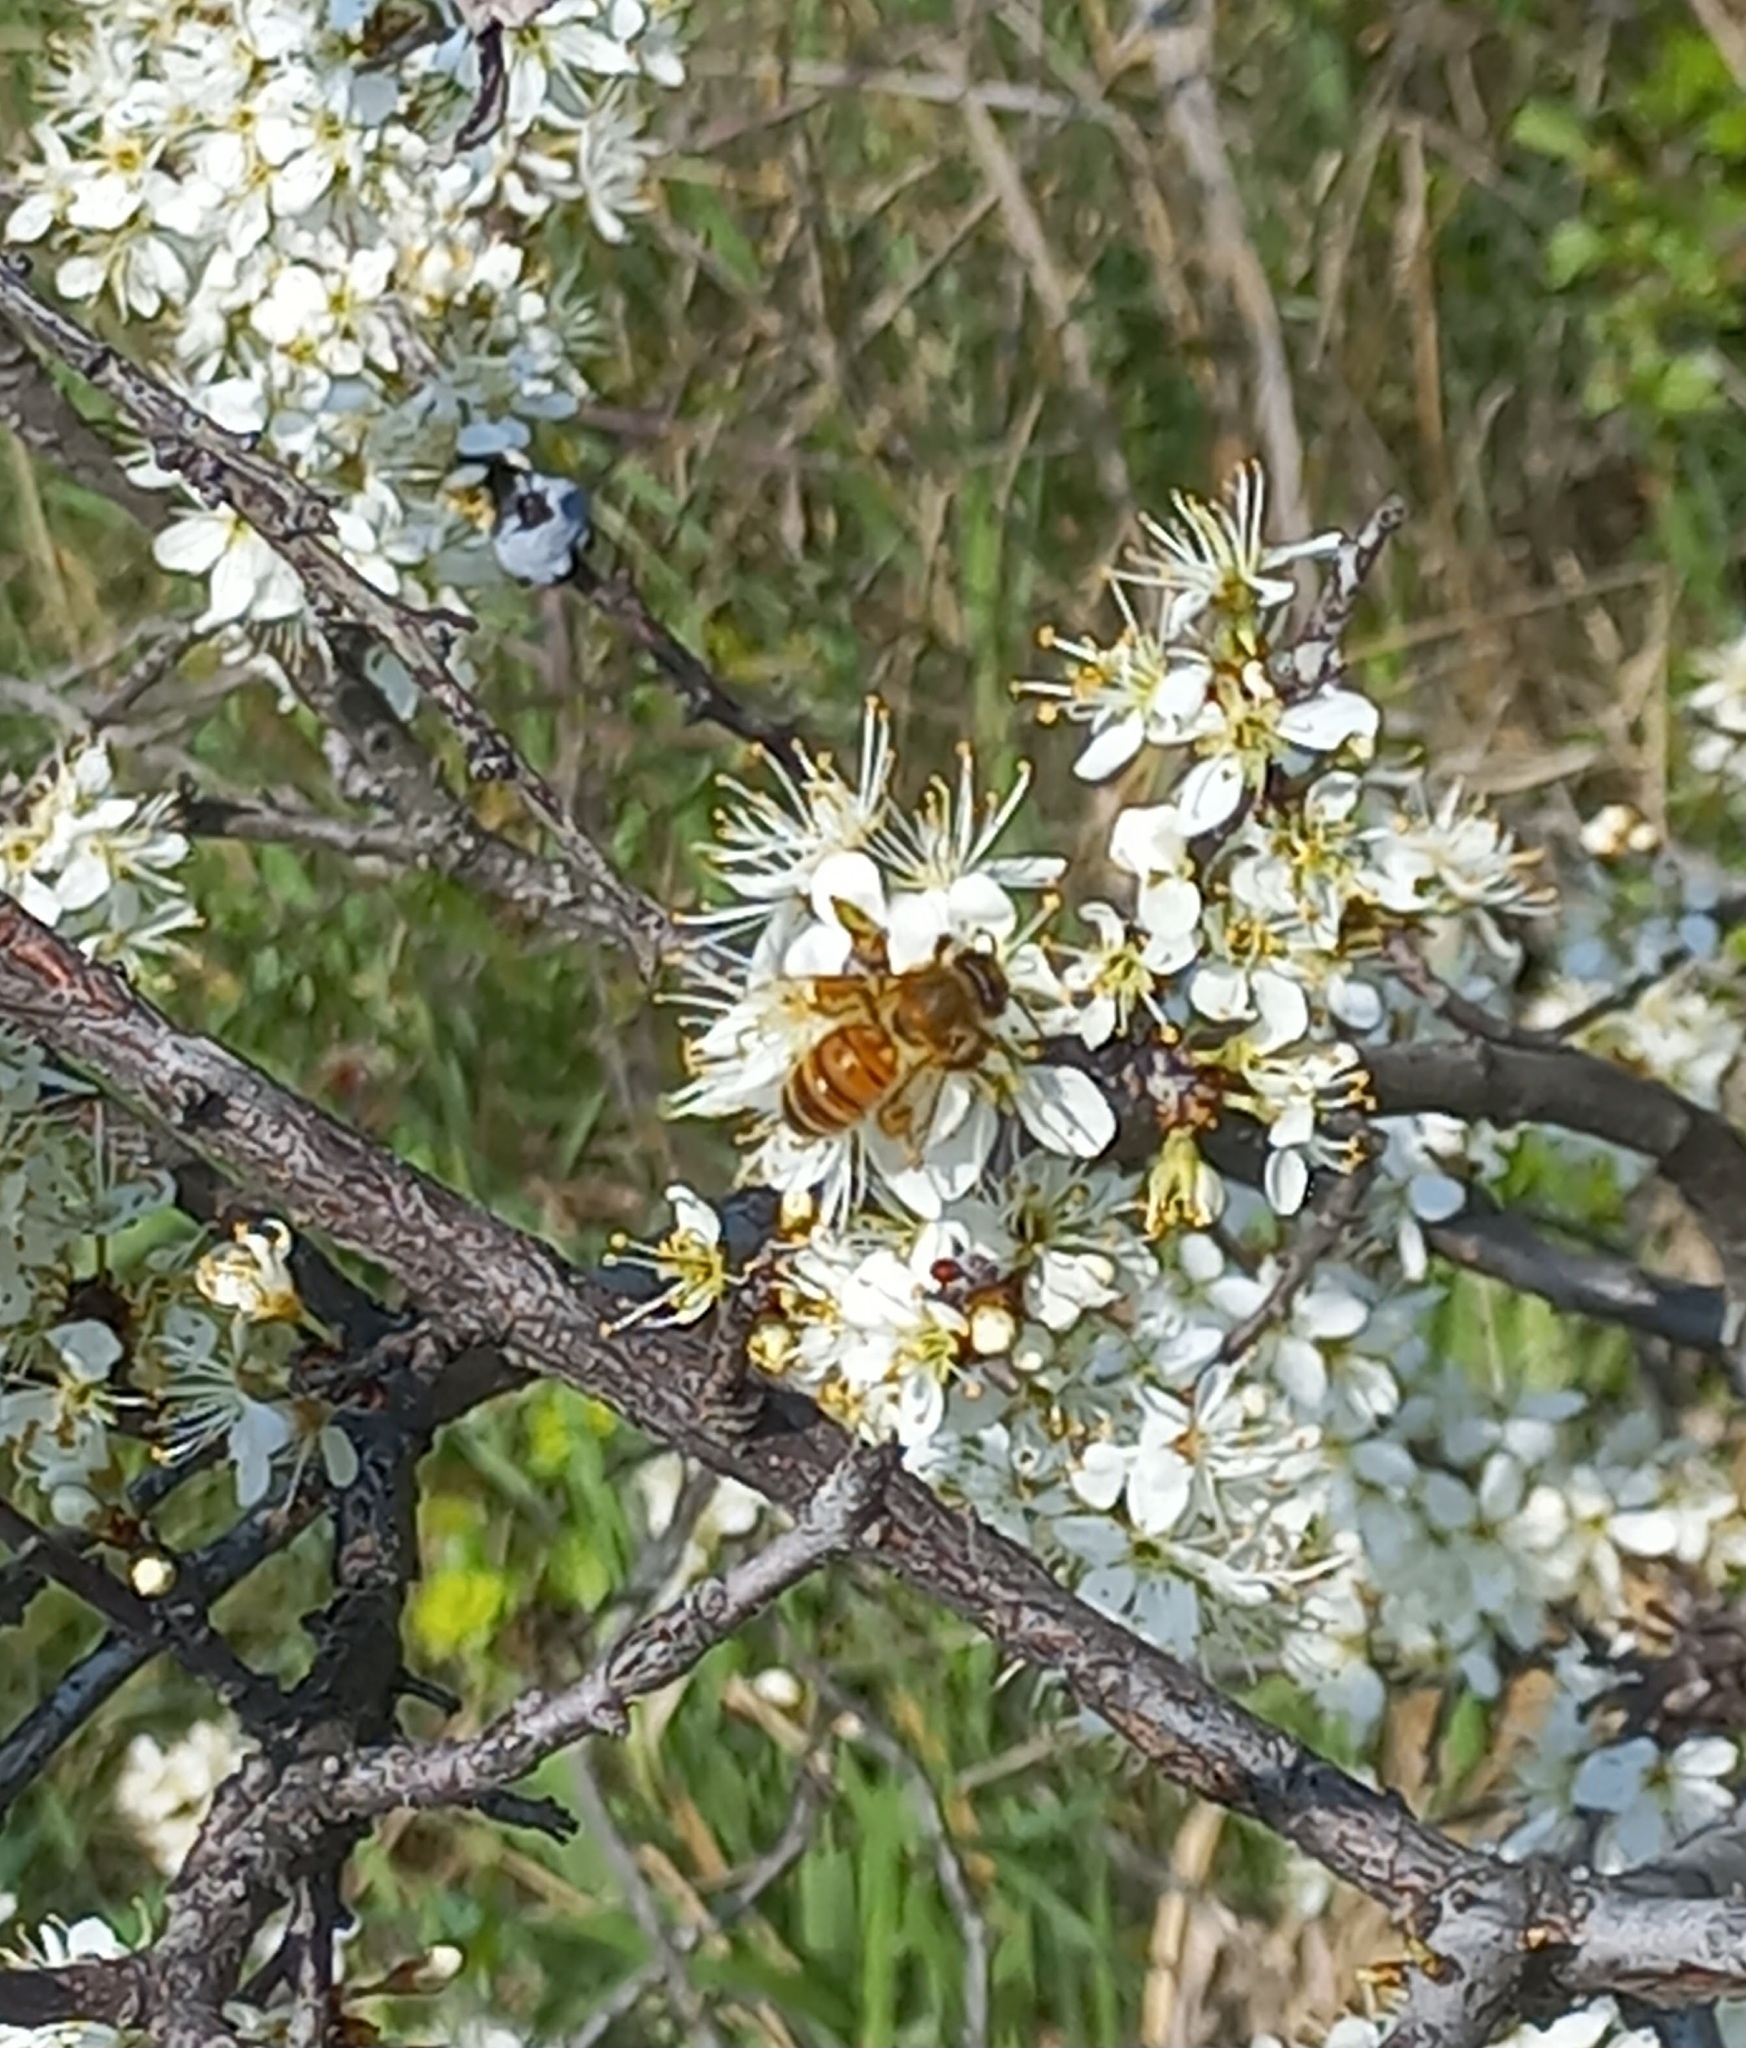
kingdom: Animalia
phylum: Arthropoda
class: Insecta
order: Hymenoptera
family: Apidae
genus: Apis
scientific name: Apis mellifera
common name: Honey bee
